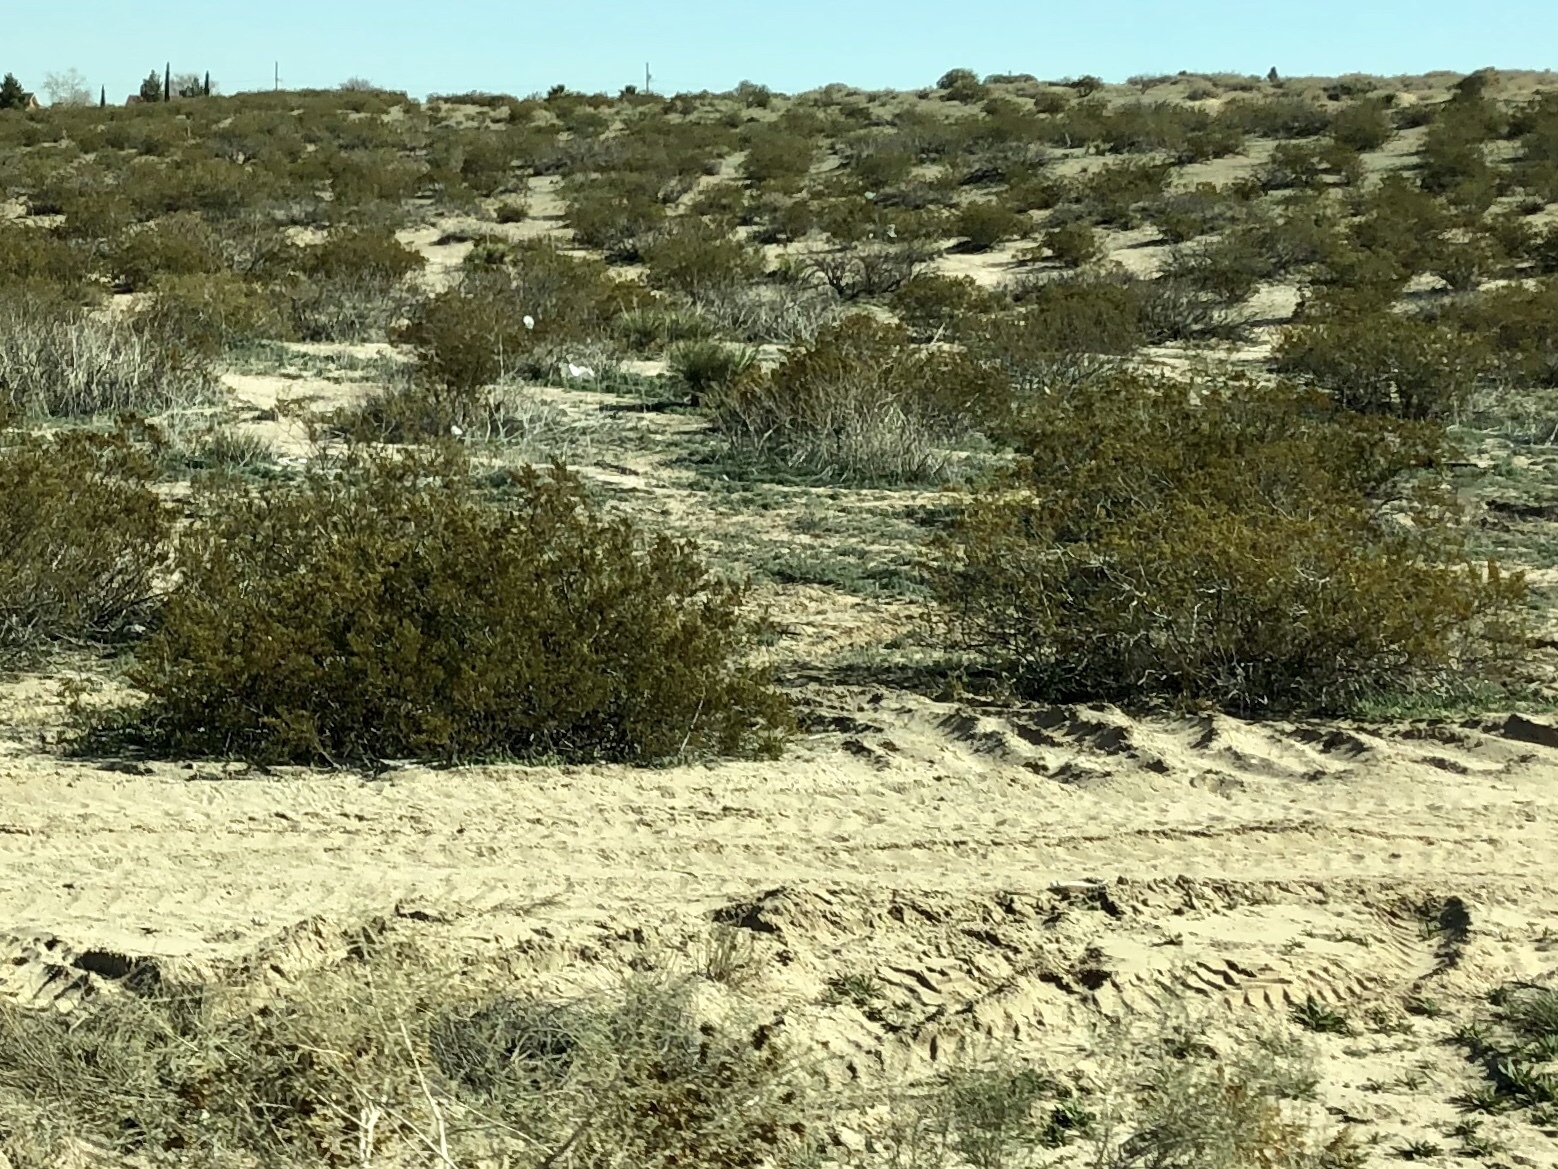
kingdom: Plantae
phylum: Tracheophyta
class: Magnoliopsida
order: Zygophyllales
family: Zygophyllaceae
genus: Larrea
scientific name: Larrea tridentata
